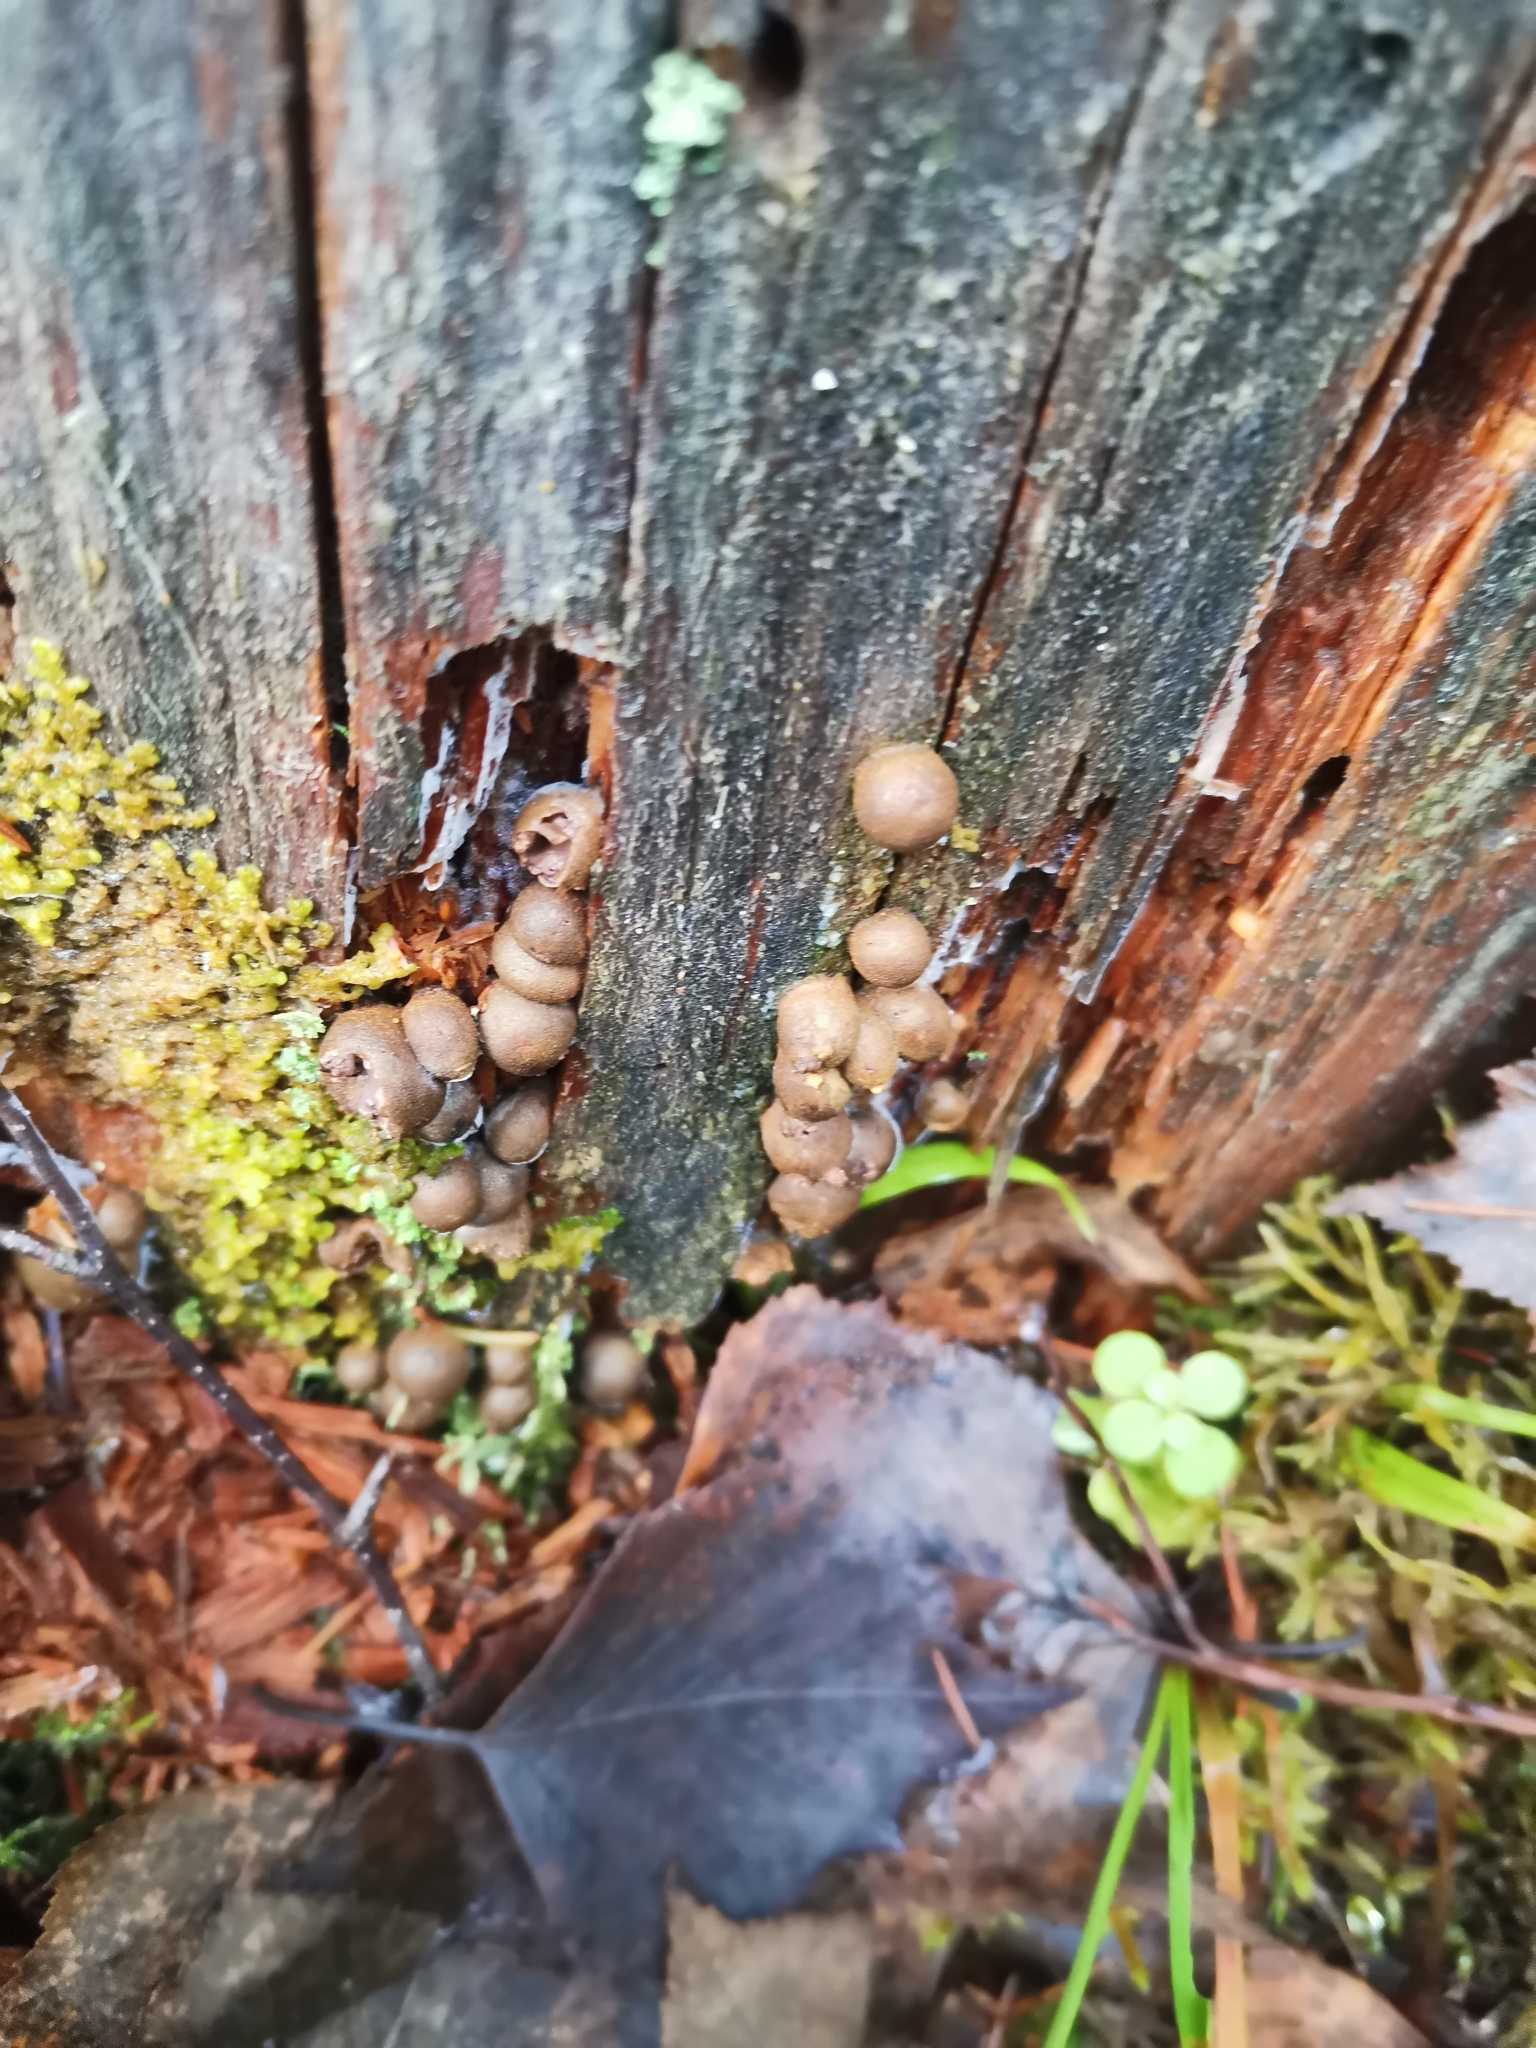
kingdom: Protozoa
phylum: Mycetozoa
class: Myxomycetes
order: Cribrariales
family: Tubiferaceae
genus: Lycogala
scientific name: Lycogala epidendrum
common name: Wolf's milk
